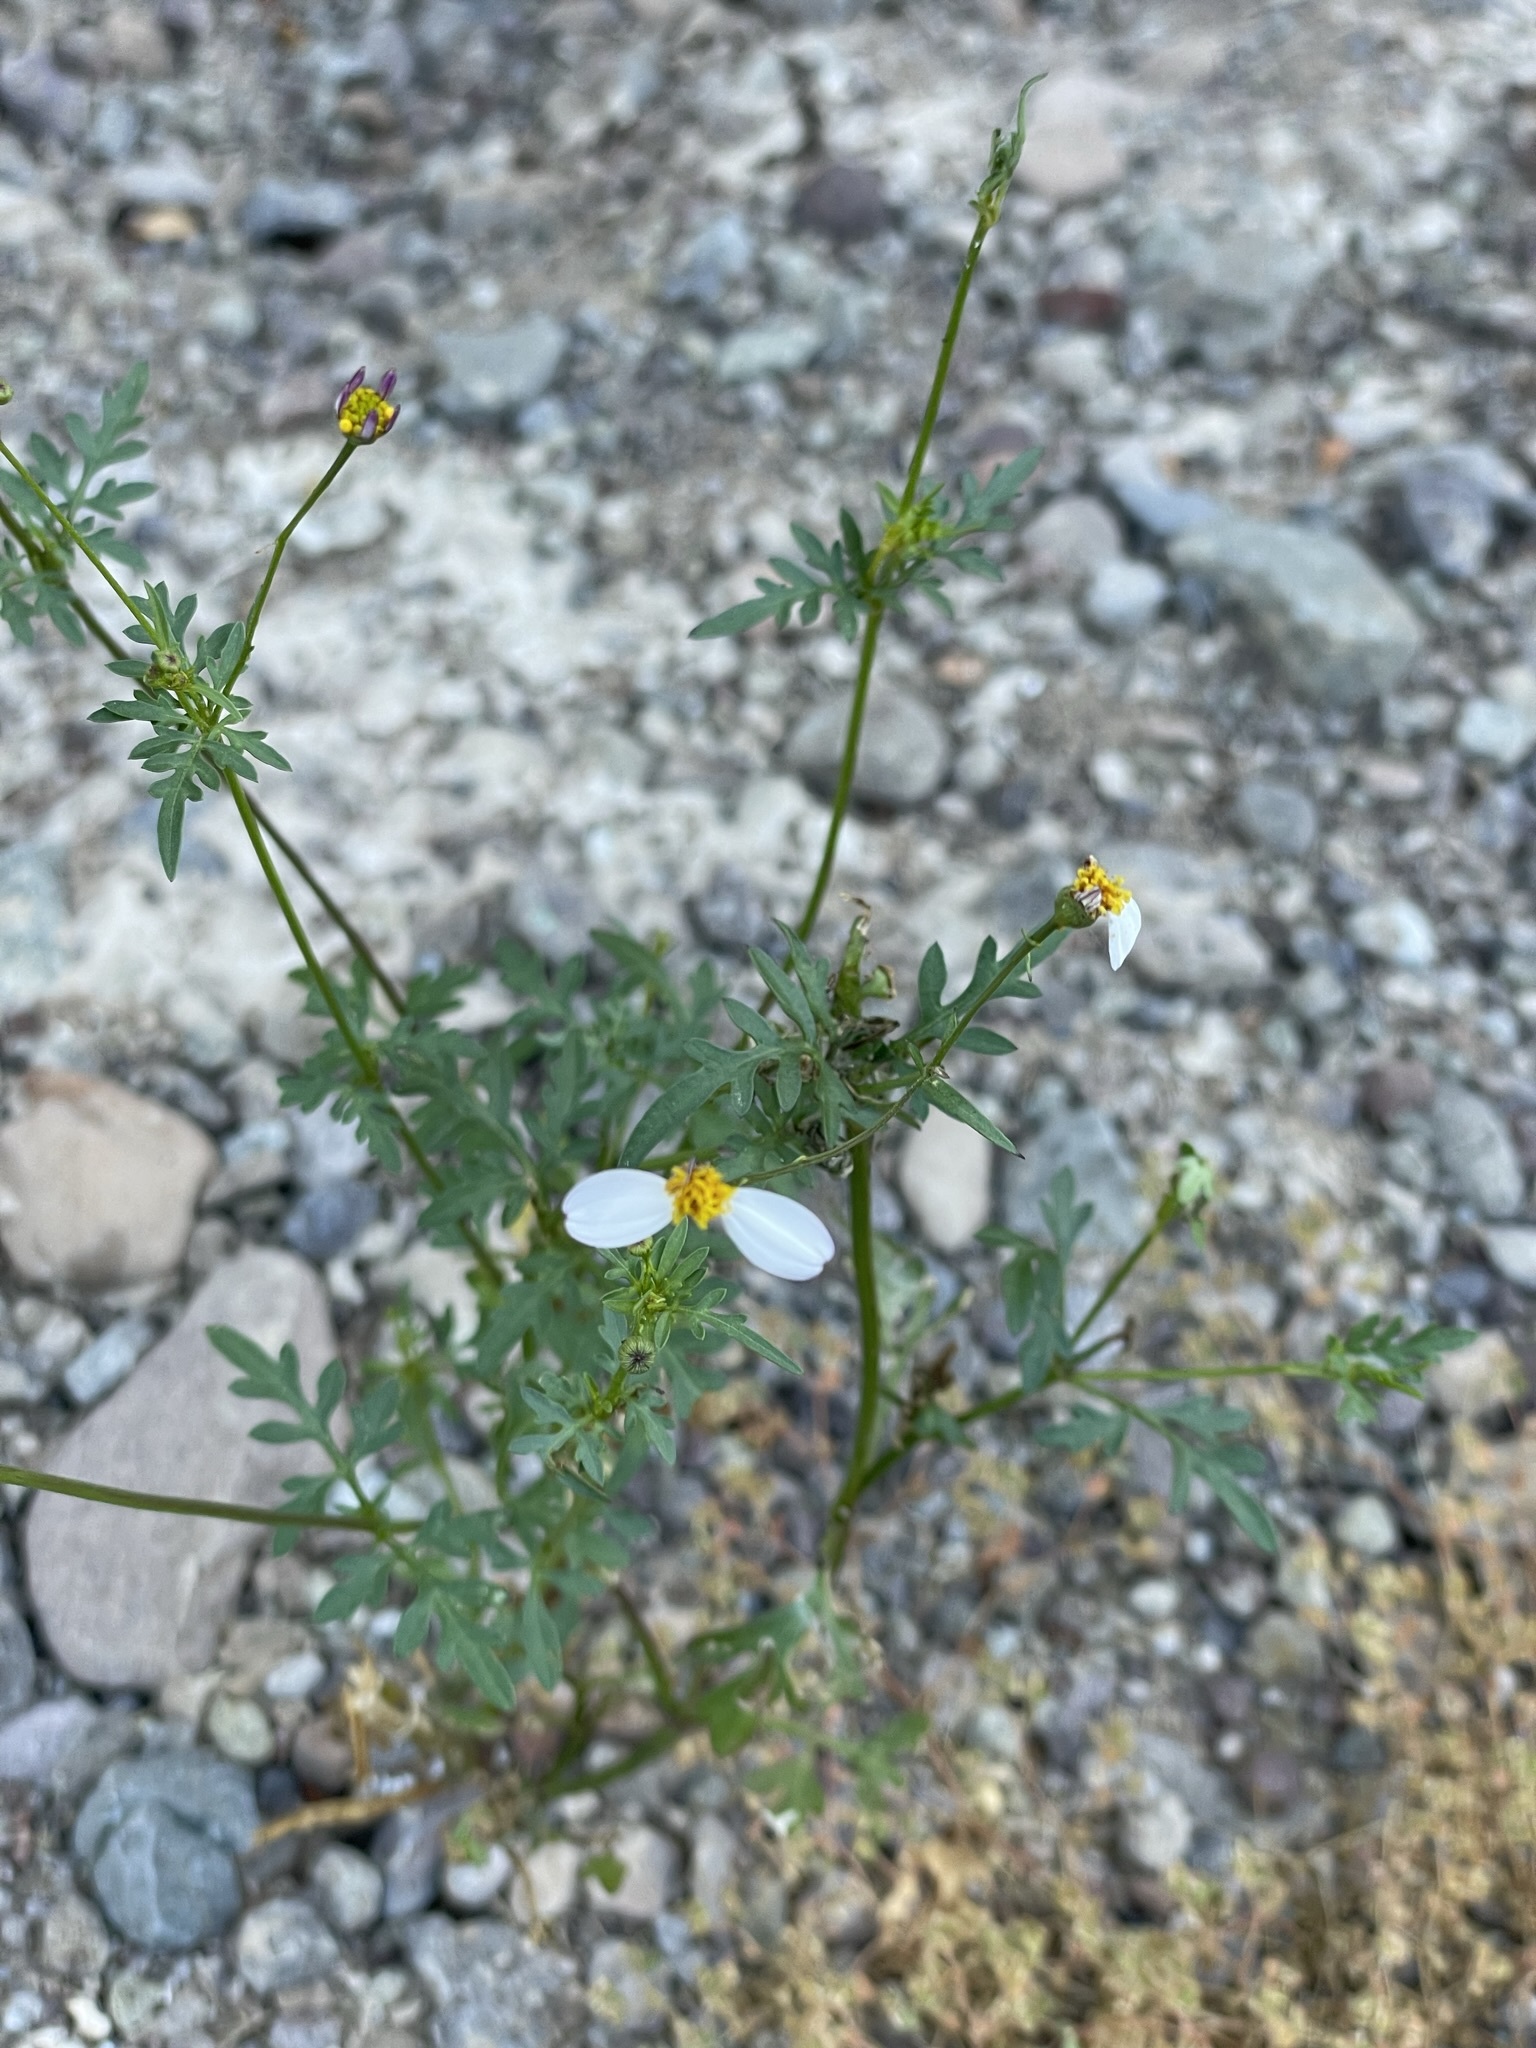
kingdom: Plantae
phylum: Tracheophyta
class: Magnoliopsida
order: Asterales
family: Asteraceae
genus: Coreocarpus
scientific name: Coreocarpus parthenioides
